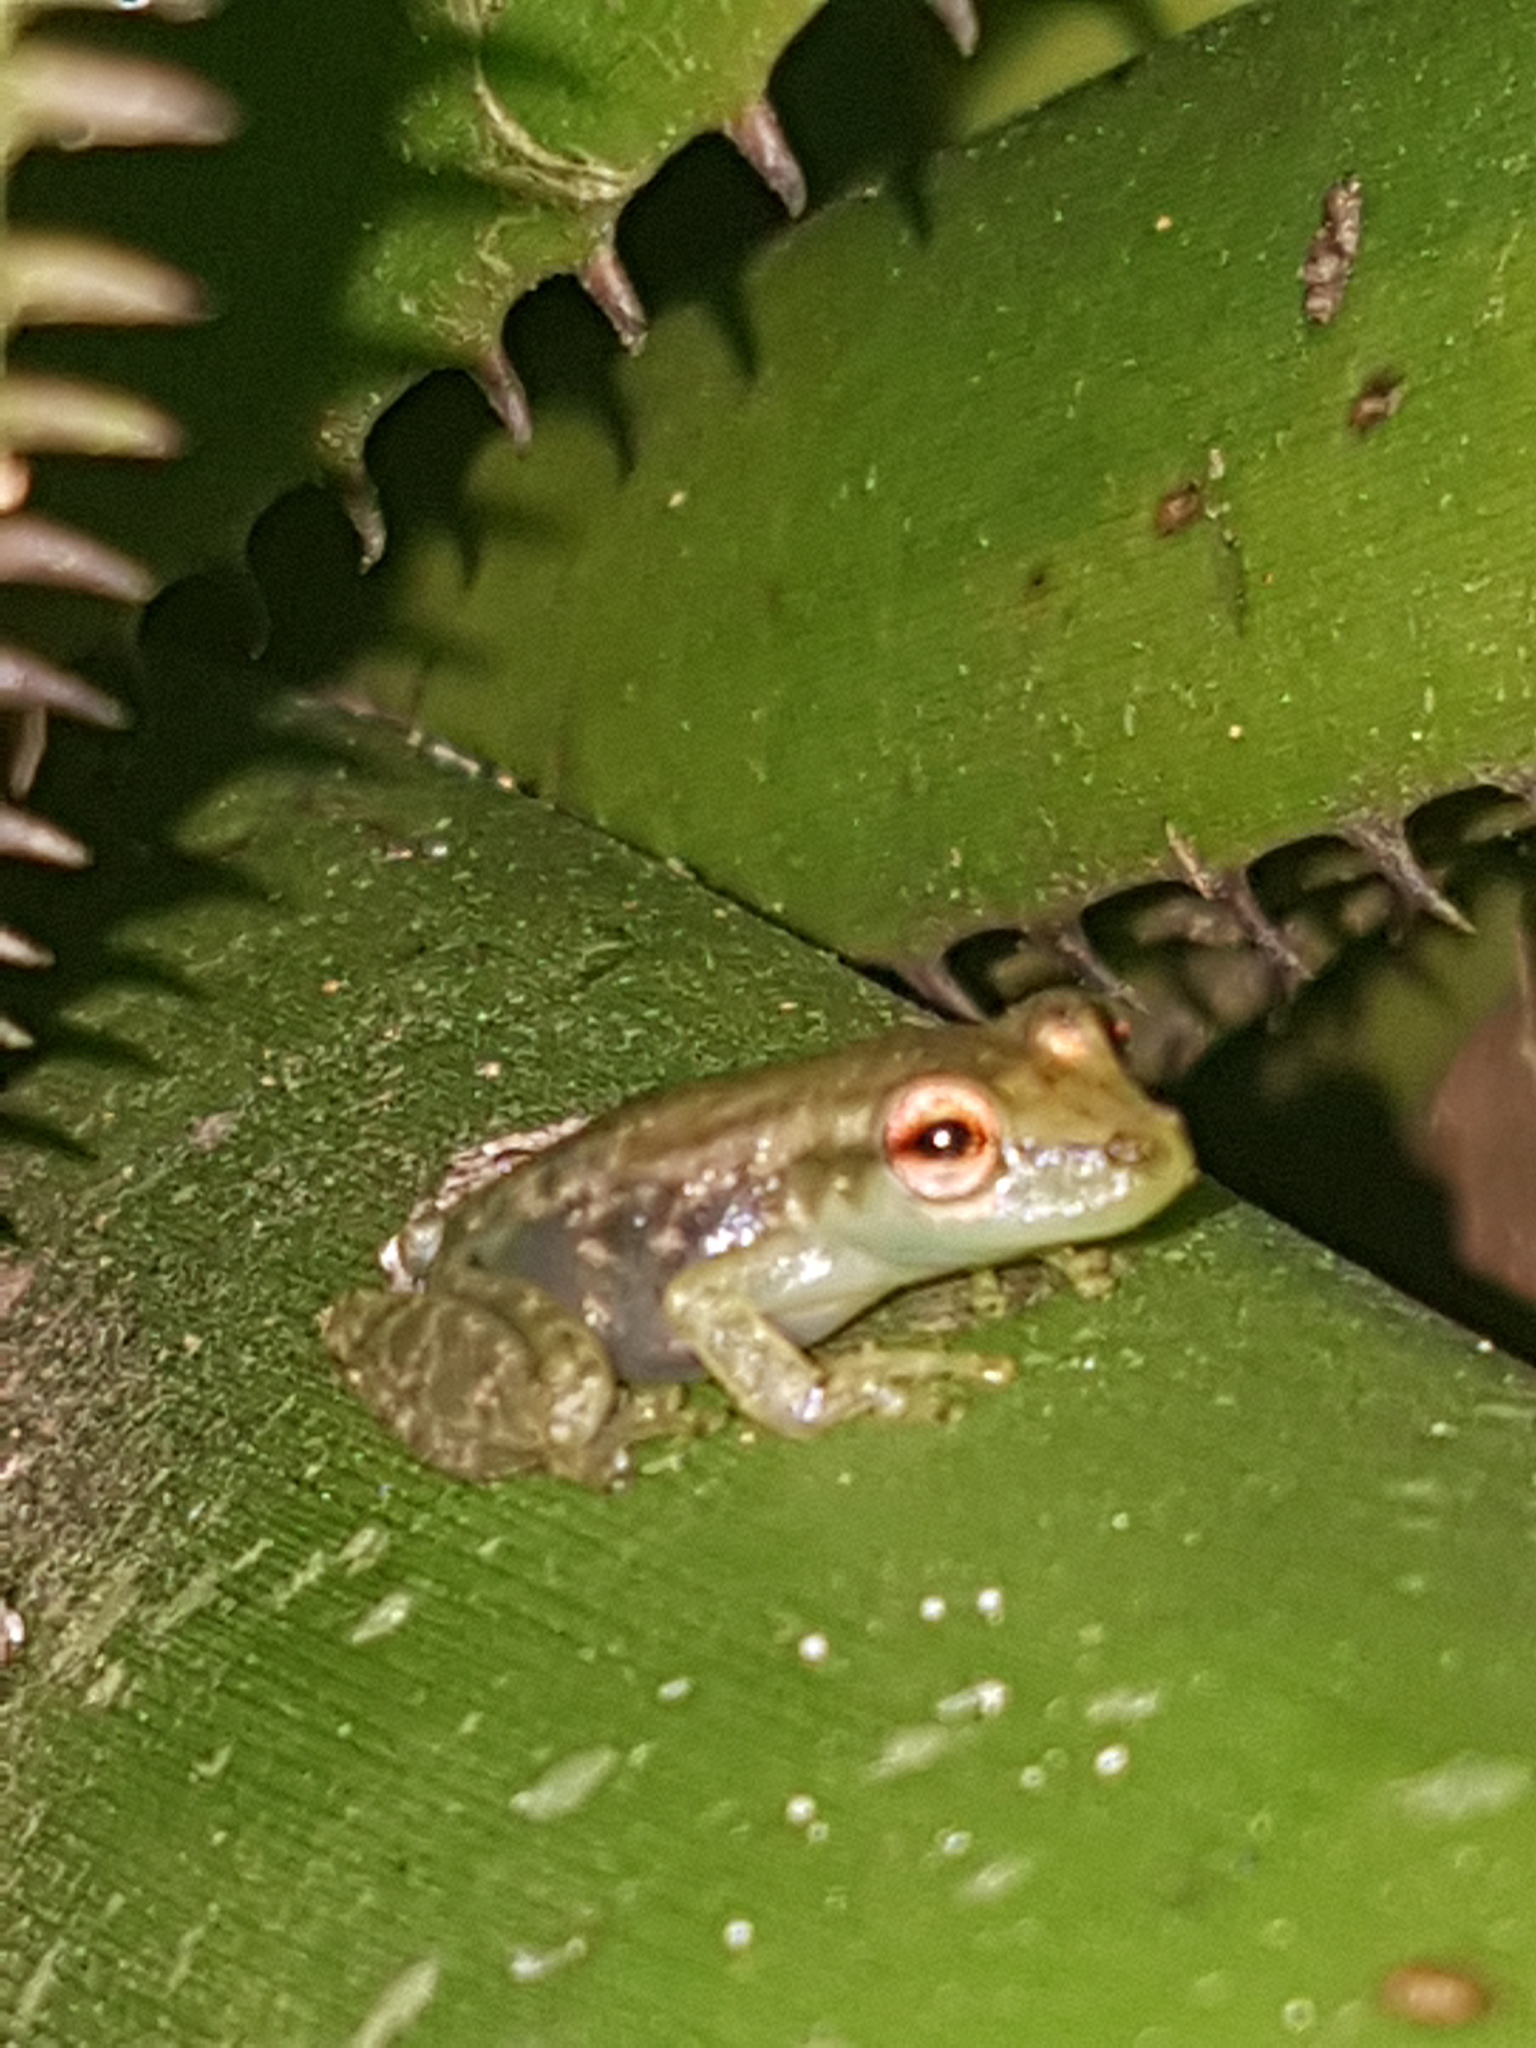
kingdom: Animalia
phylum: Chordata
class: Amphibia
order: Anura
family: Hylidae
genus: Scinax
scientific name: Scinax ruber
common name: Red snouted treefrog
